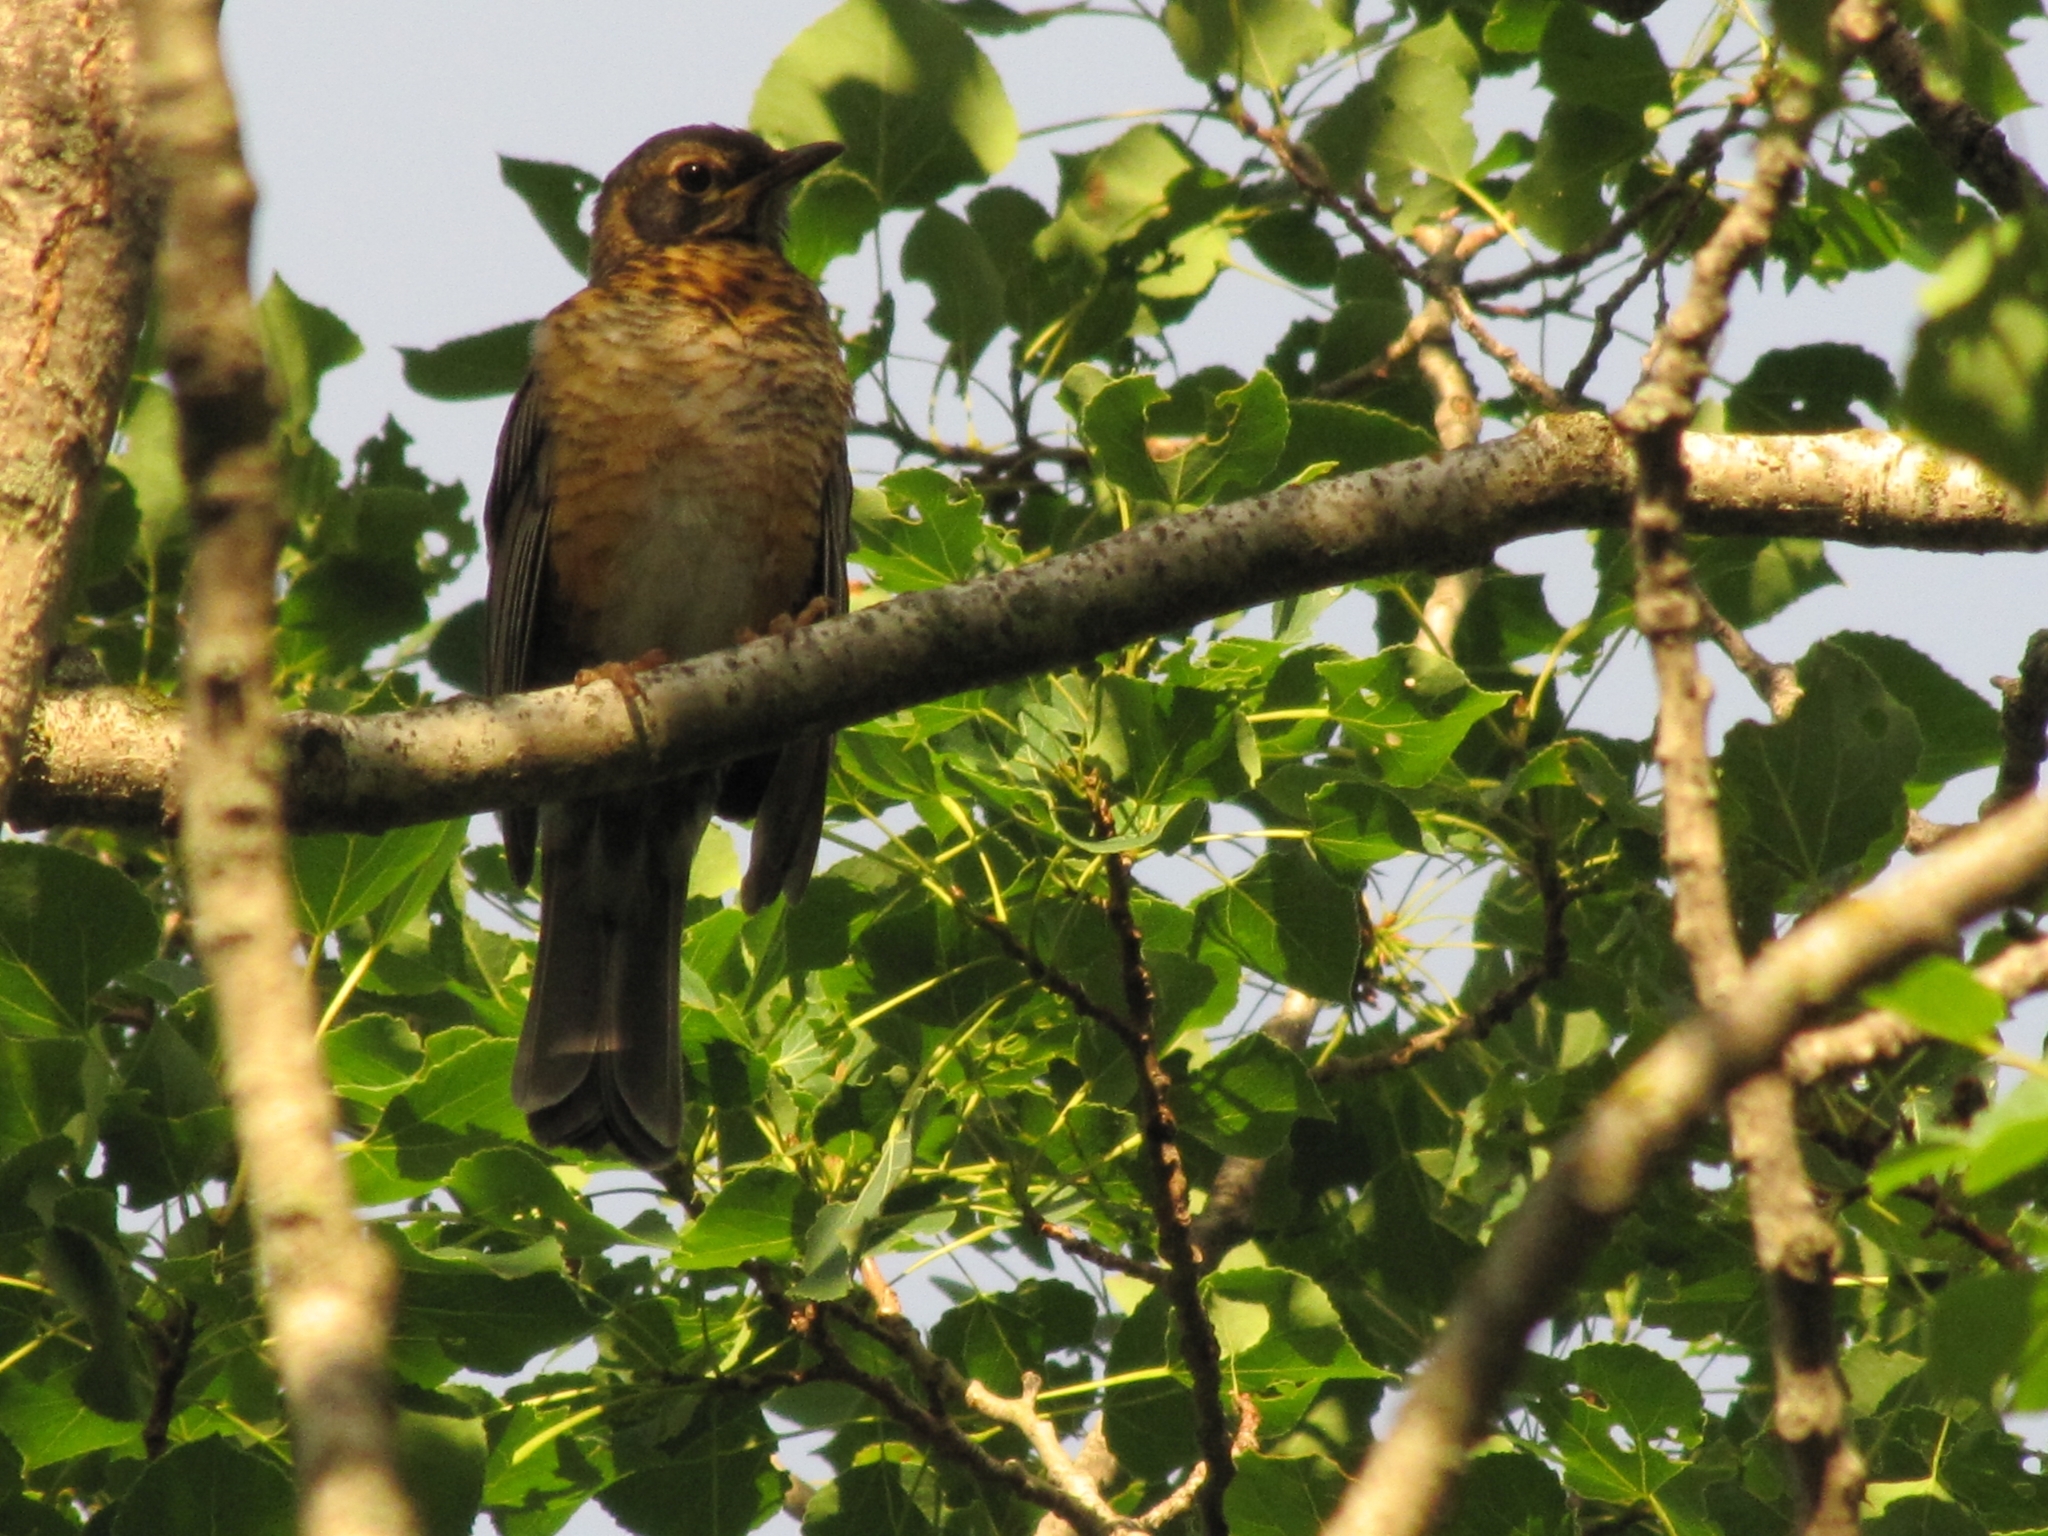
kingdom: Animalia
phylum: Chordata
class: Aves
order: Passeriformes
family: Turdidae
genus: Turdus
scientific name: Turdus migratorius
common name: American robin
